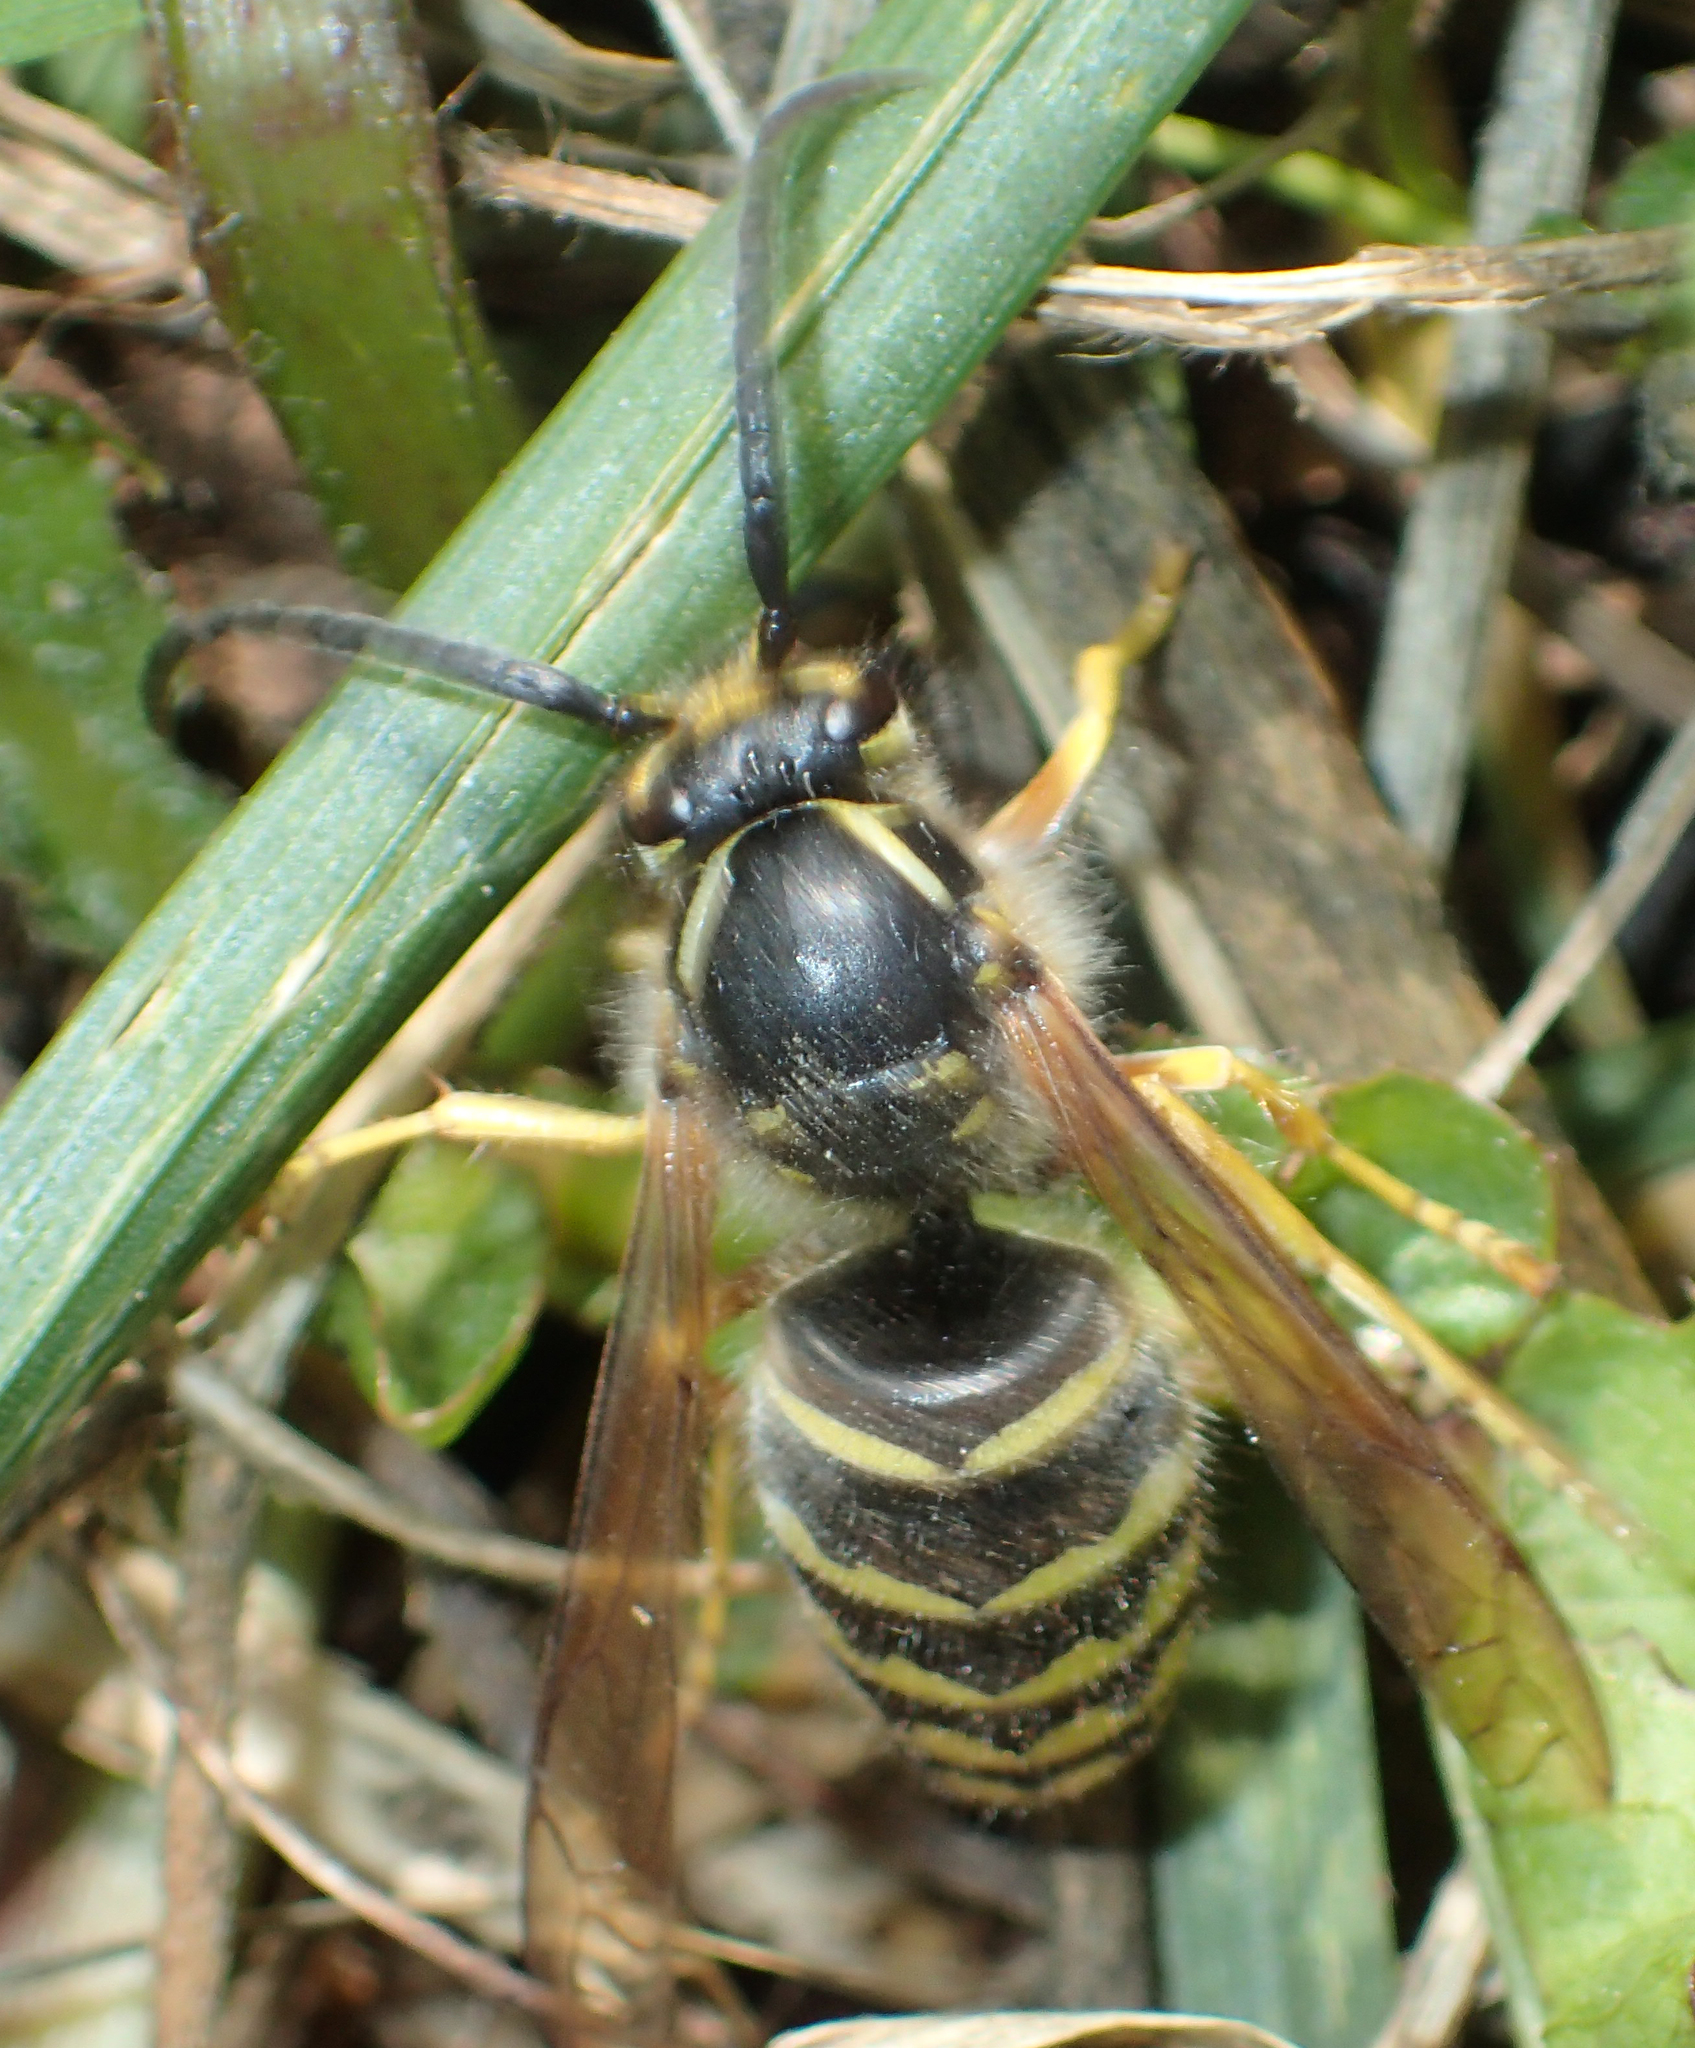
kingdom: Animalia
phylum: Arthropoda
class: Insecta
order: Hymenoptera
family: Vespidae
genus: Dolichovespula
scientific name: Dolichovespula arenaria
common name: Aerial yellowjacket
